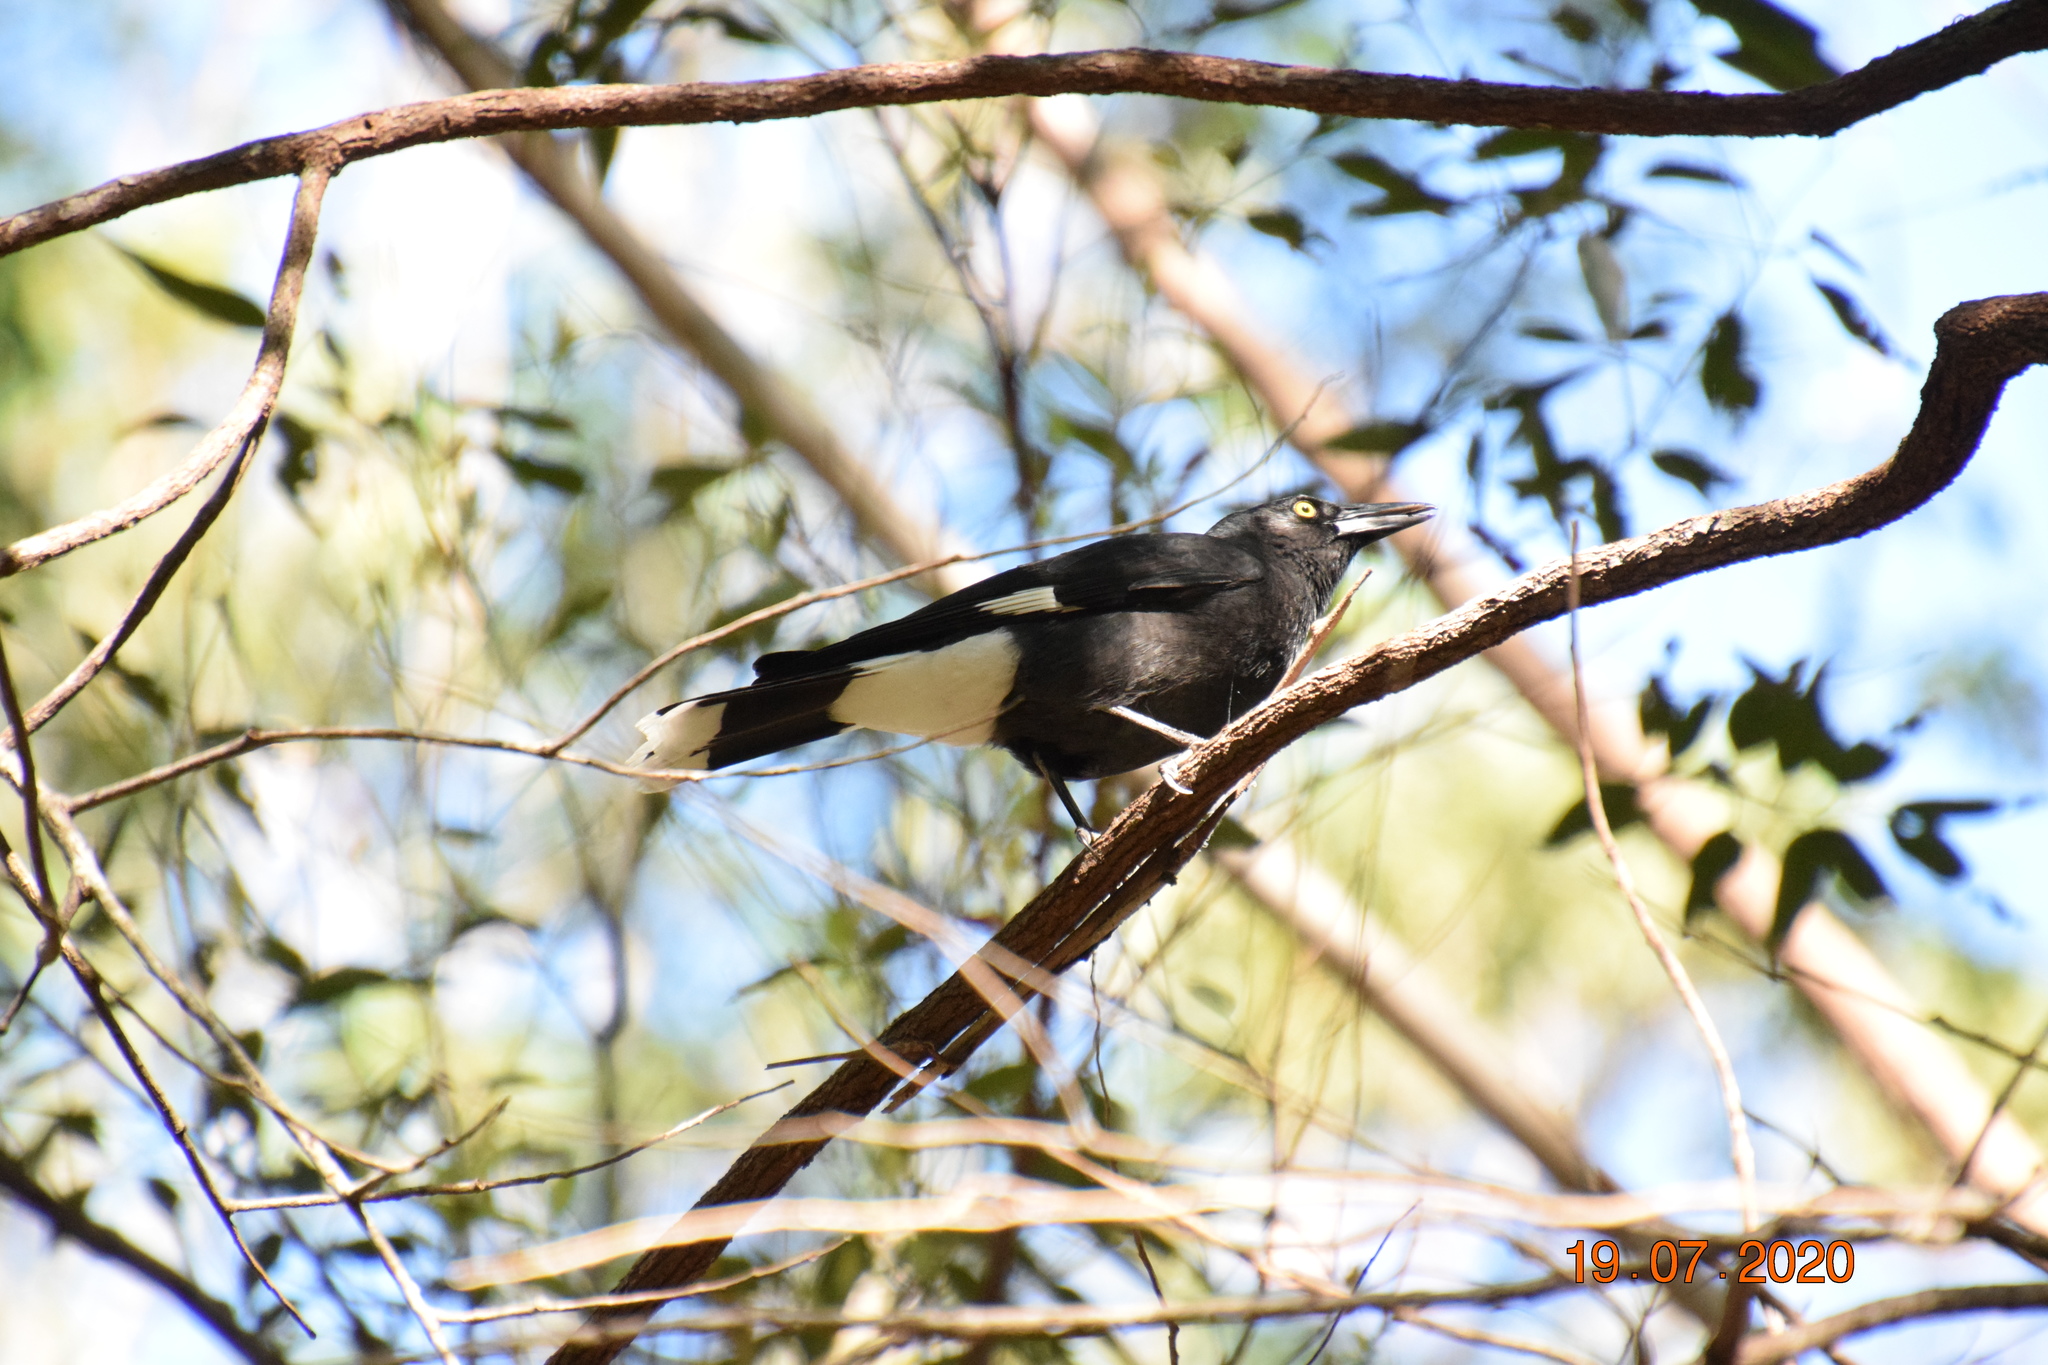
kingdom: Animalia
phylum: Chordata
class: Aves
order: Passeriformes
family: Cracticidae
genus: Strepera
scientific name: Strepera graculina
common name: Pied currawong
